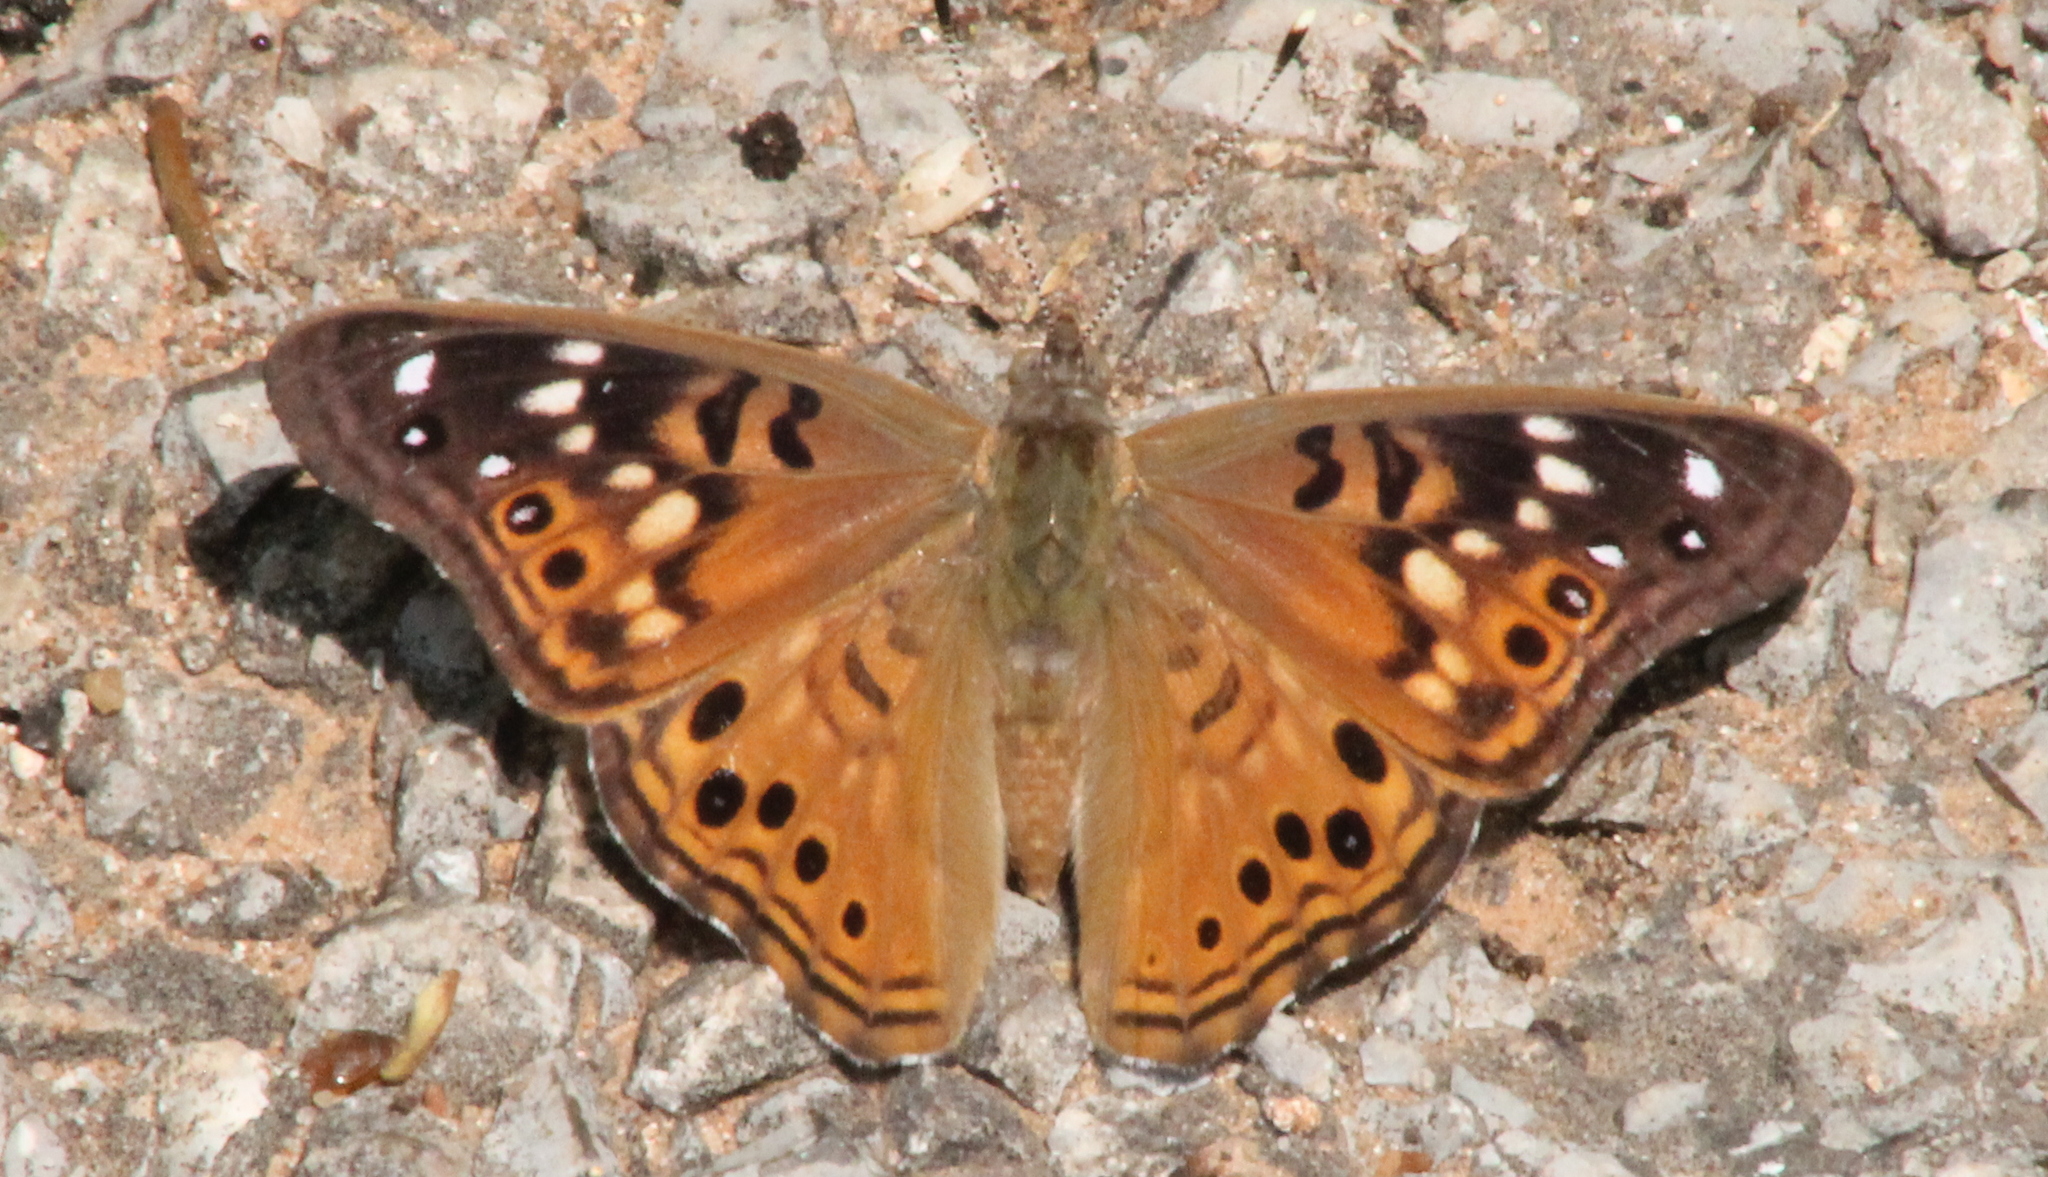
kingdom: Animalia
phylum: Arthropoda
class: Insecta
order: Lepidoptera
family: Nymphalidae
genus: Asterocampa
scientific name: Asterocampa celtis
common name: Hackberry emperor
